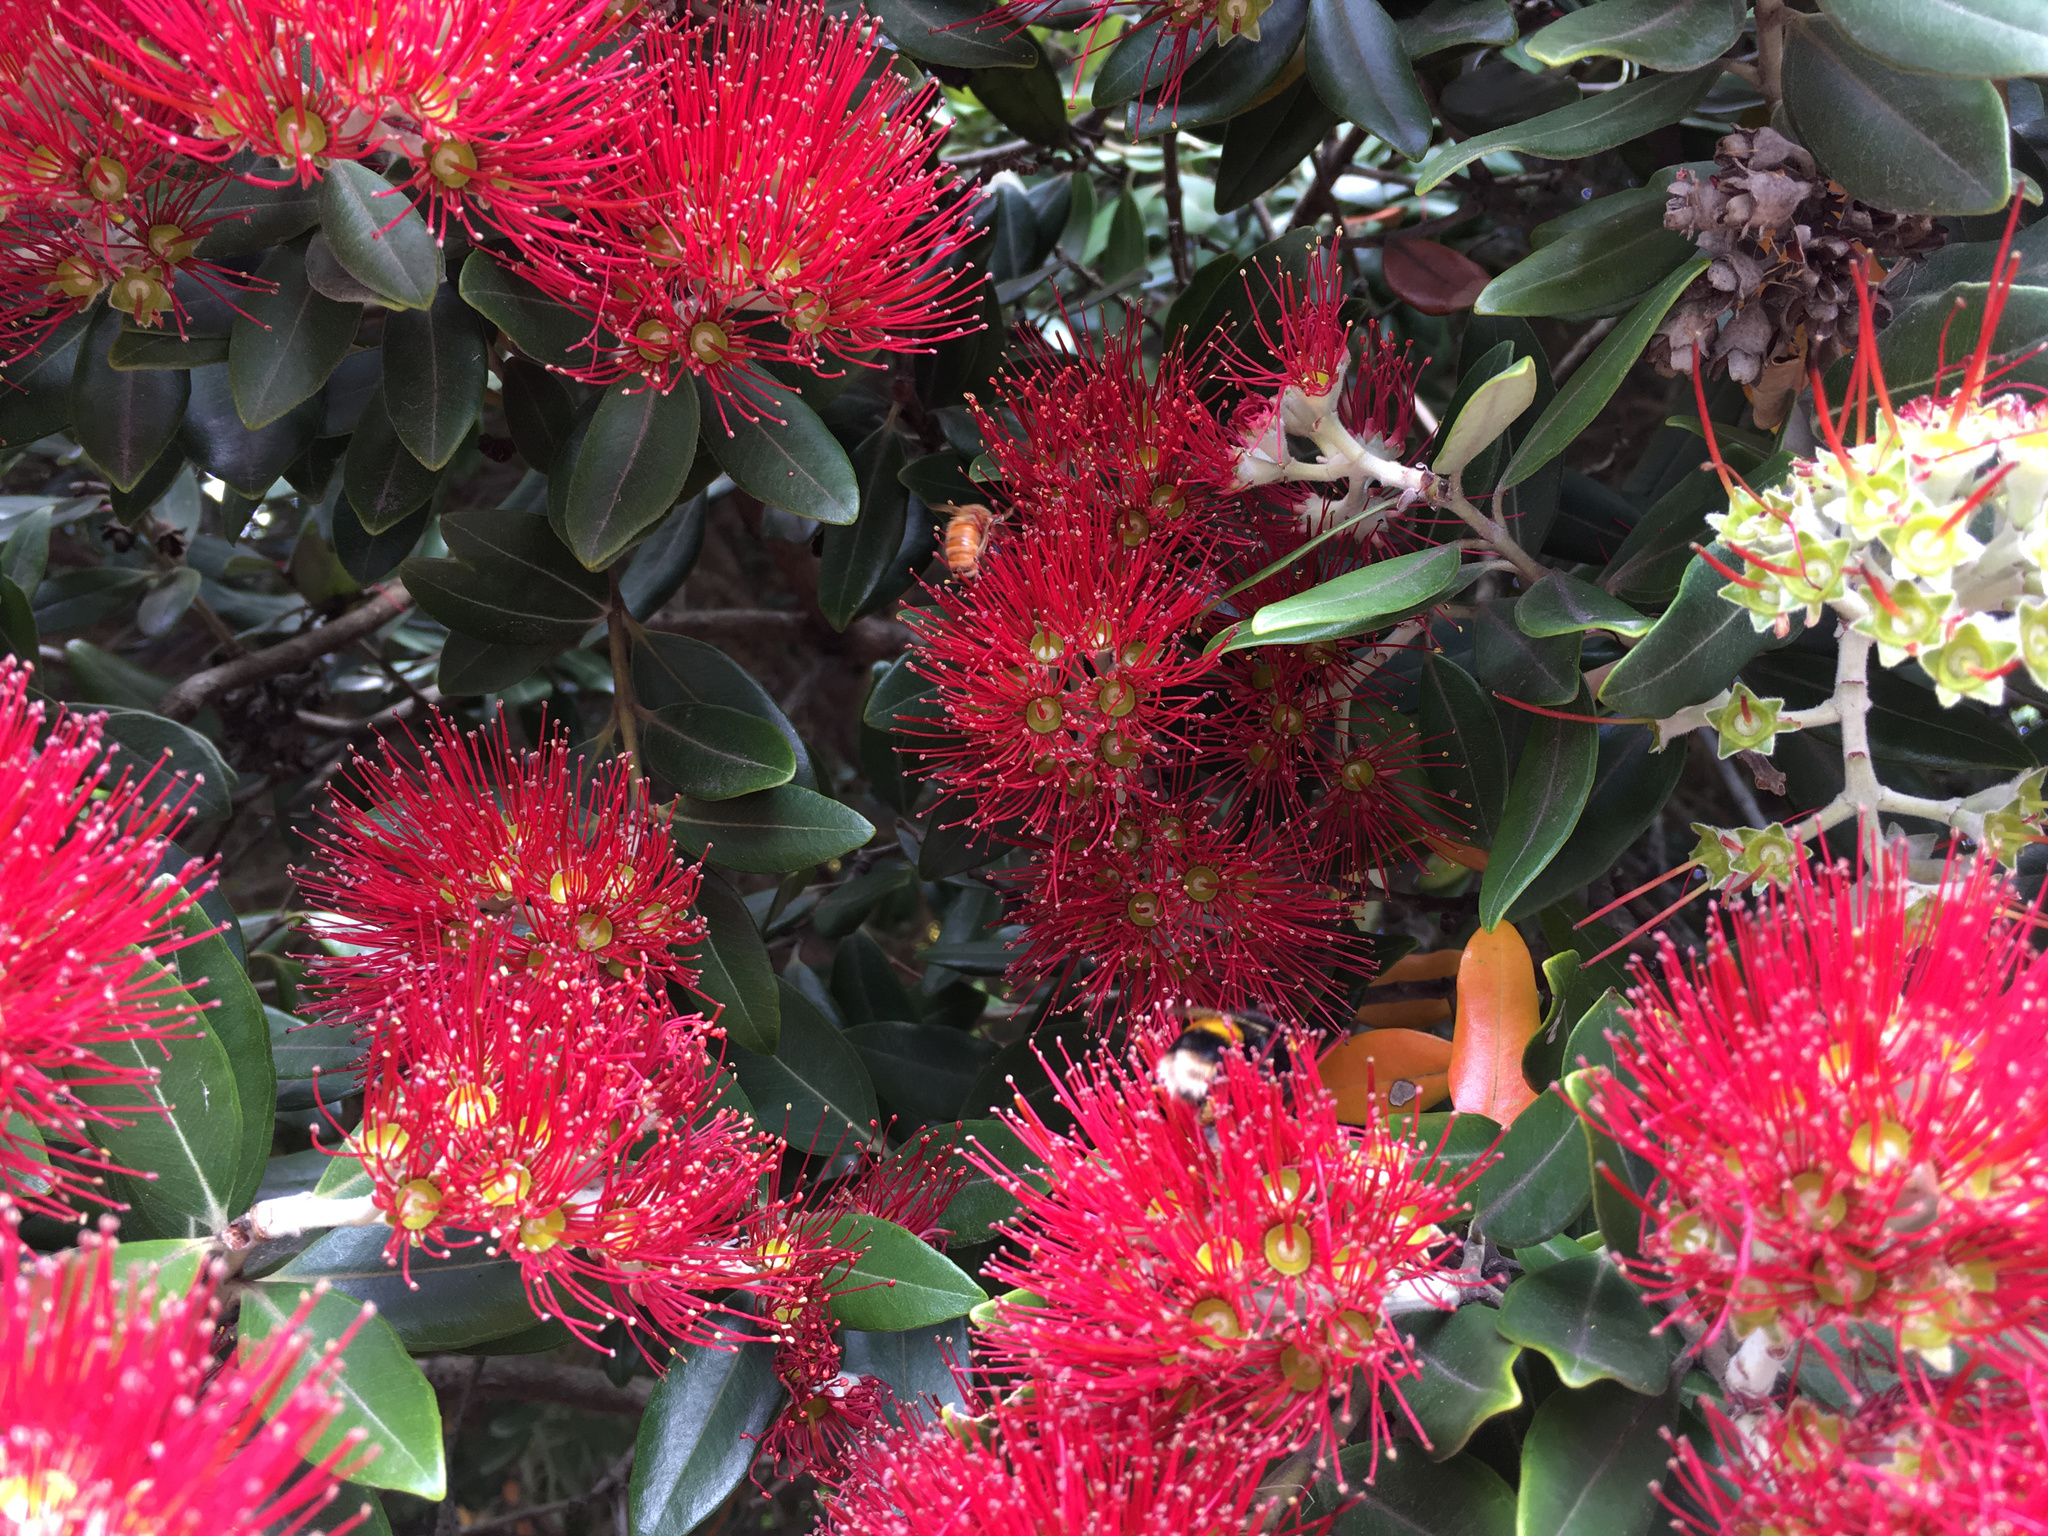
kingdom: Animalia
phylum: Arthropoda
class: Insecta
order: Hymenoptera
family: Apidae
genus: Apis
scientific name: Apis mellifera
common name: Honey bee
